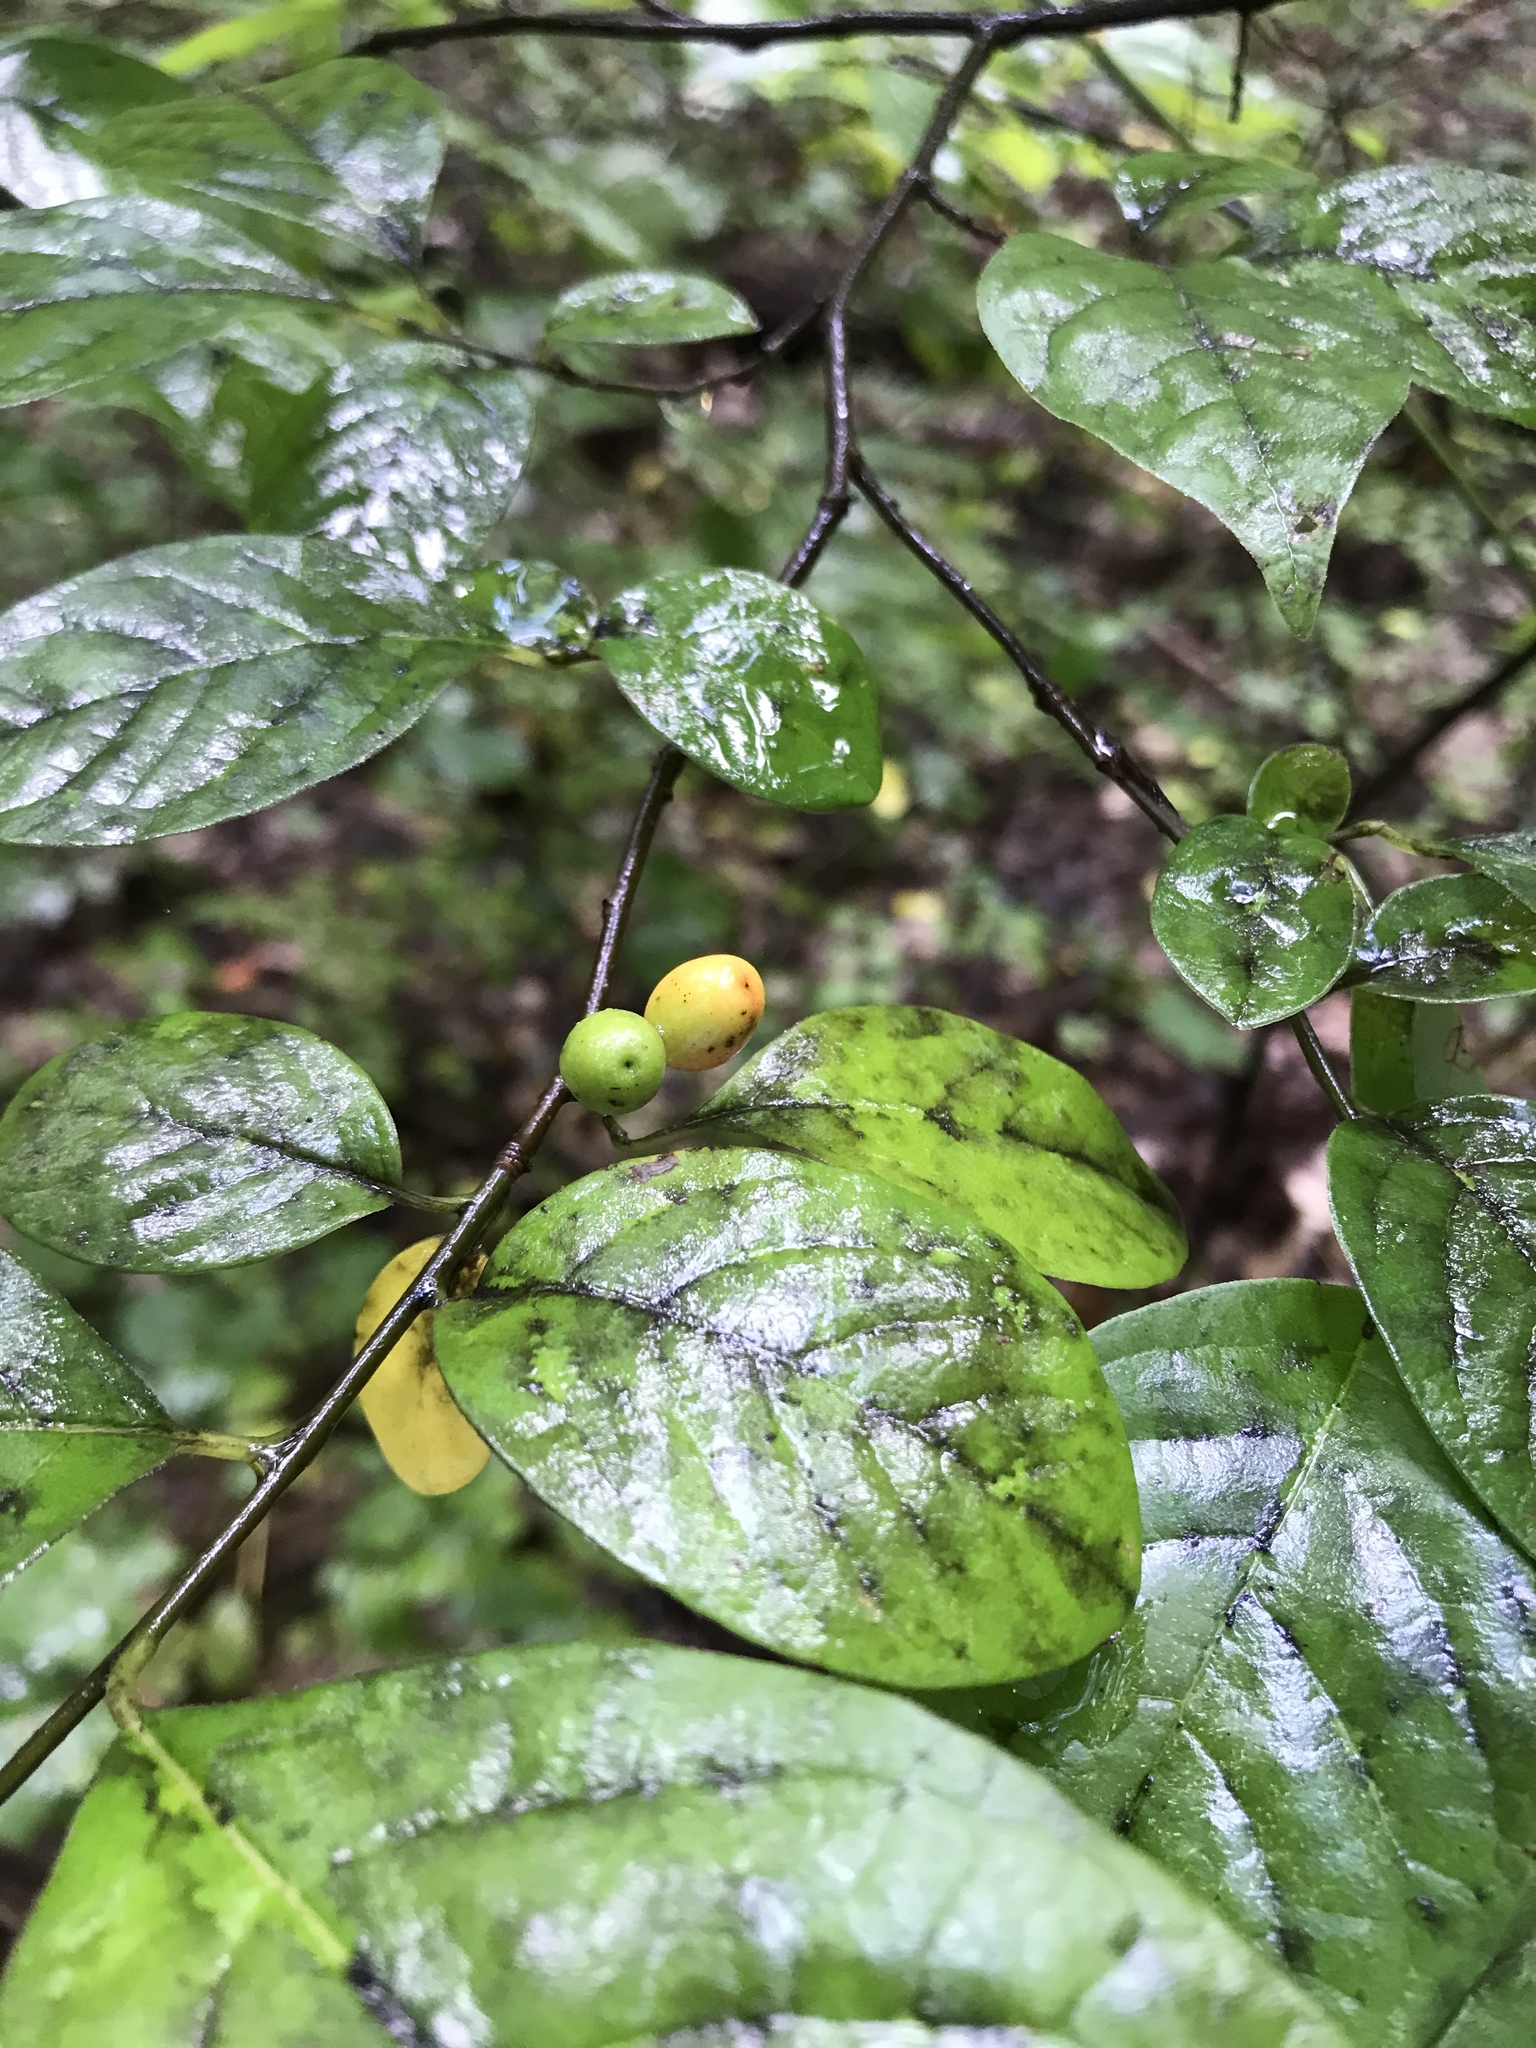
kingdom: Plantae
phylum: Tracheophyta
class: Magnoliopsida
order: Laurales
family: Lauraceae
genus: Lindera
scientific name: Lindera benzoin
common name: Spicebush
